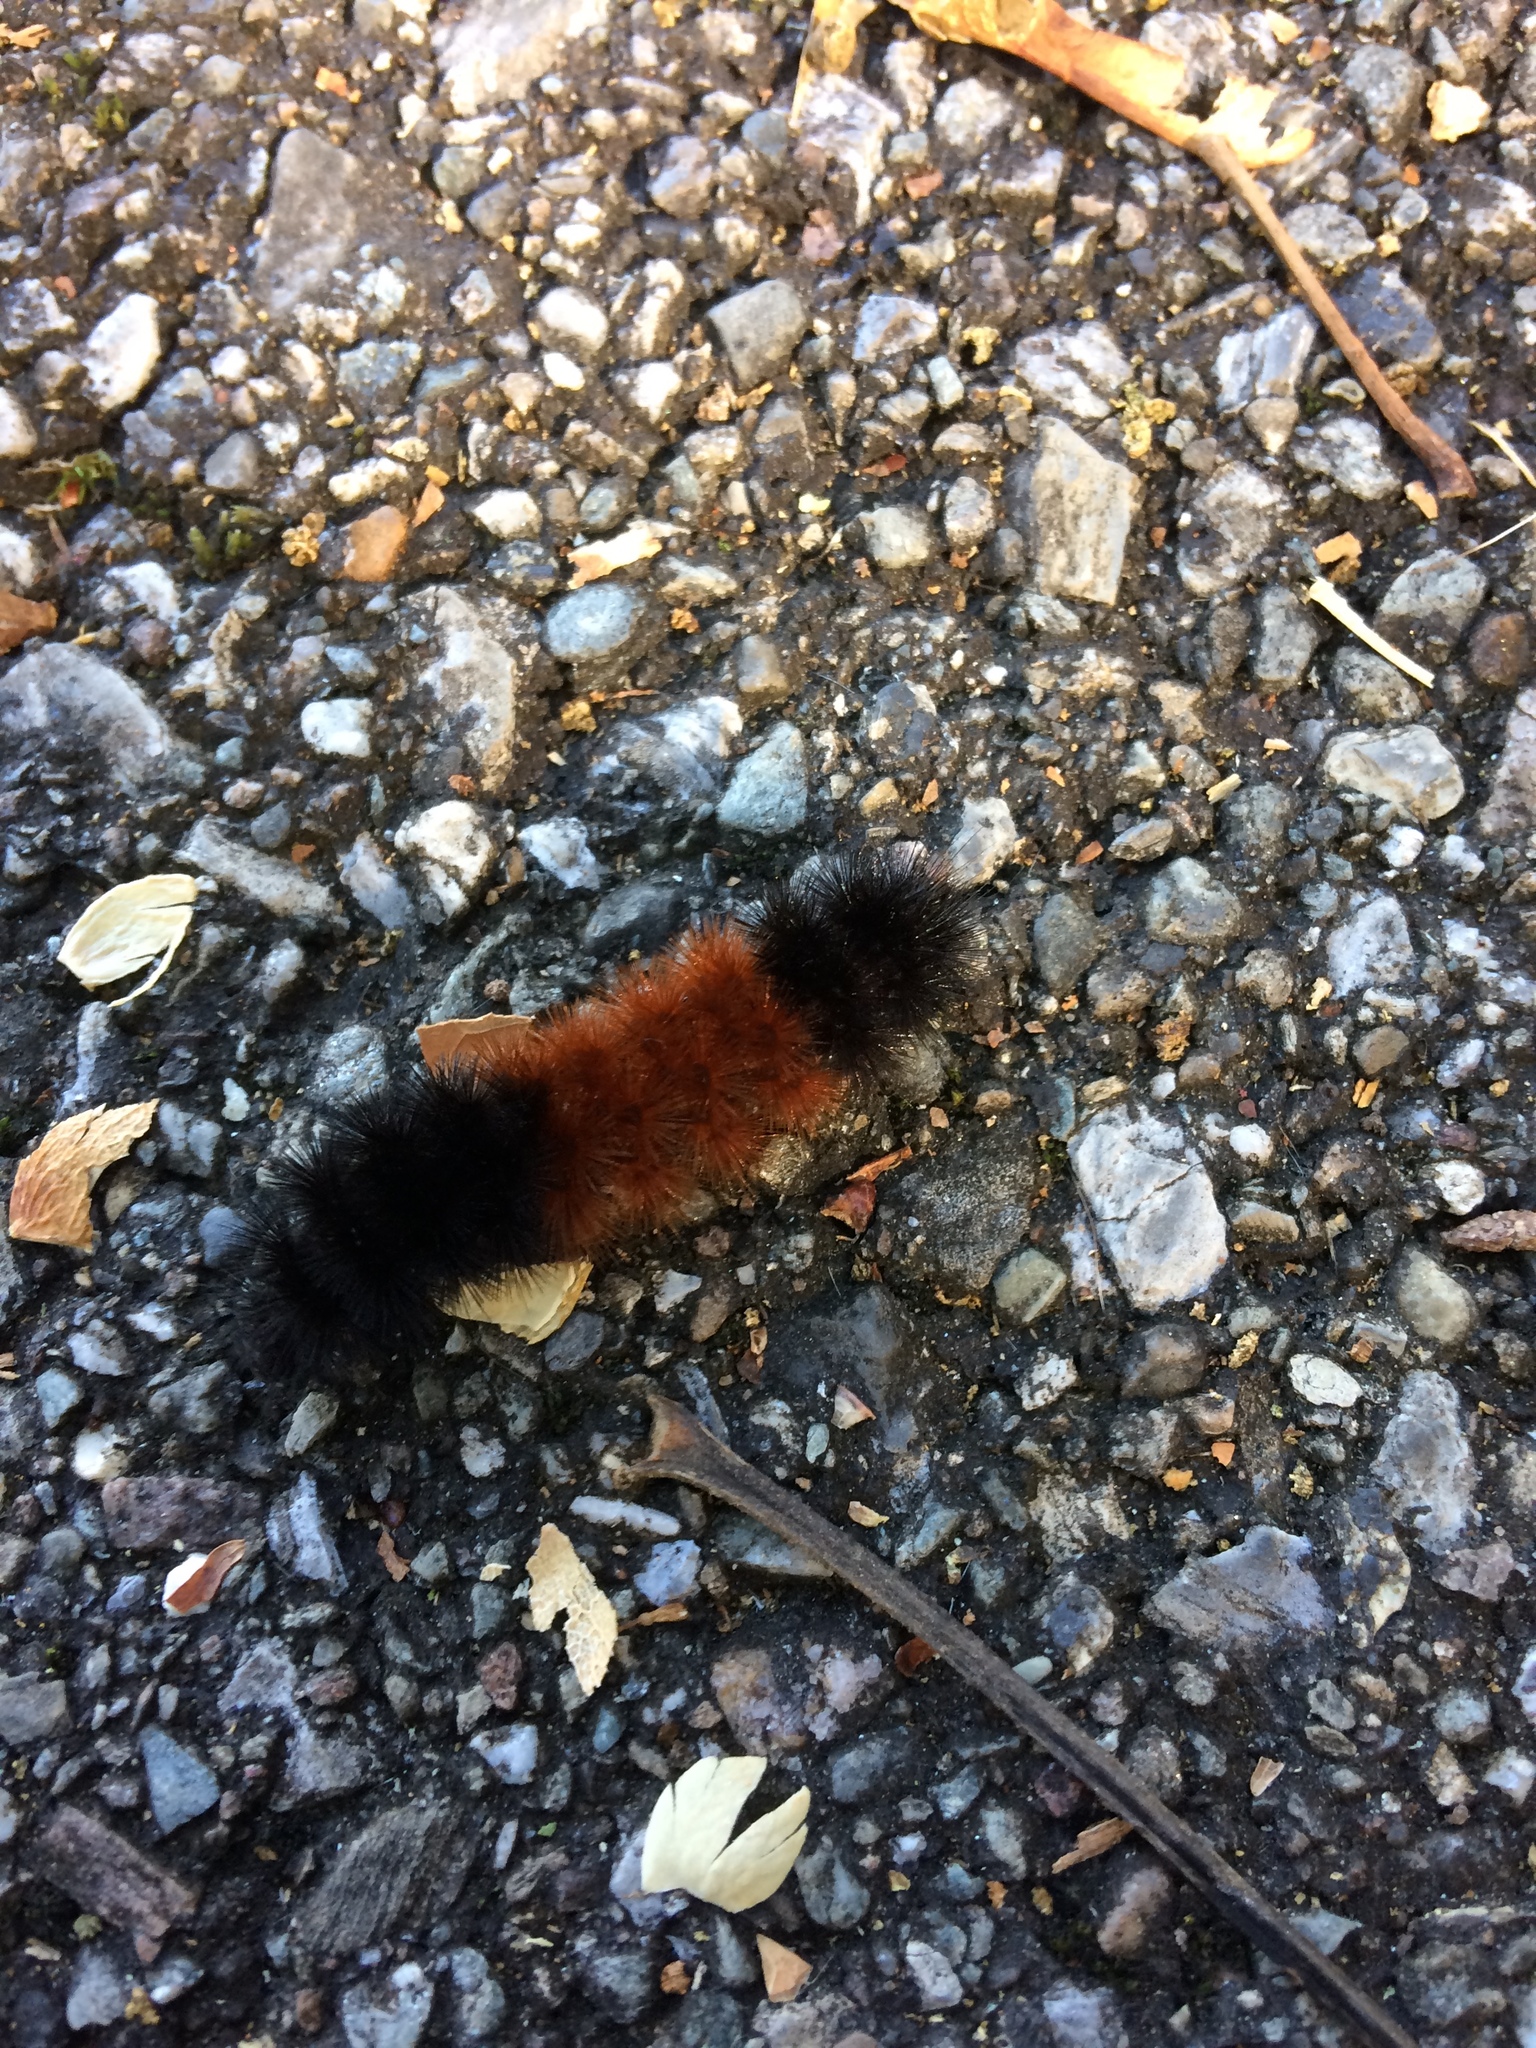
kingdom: Animalia
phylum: Arthropoda
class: Insecta
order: Lepidoptera
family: Erebidae
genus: Pyrrharctia
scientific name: Pyrrharctia isabella
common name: Isabella tiger moth
